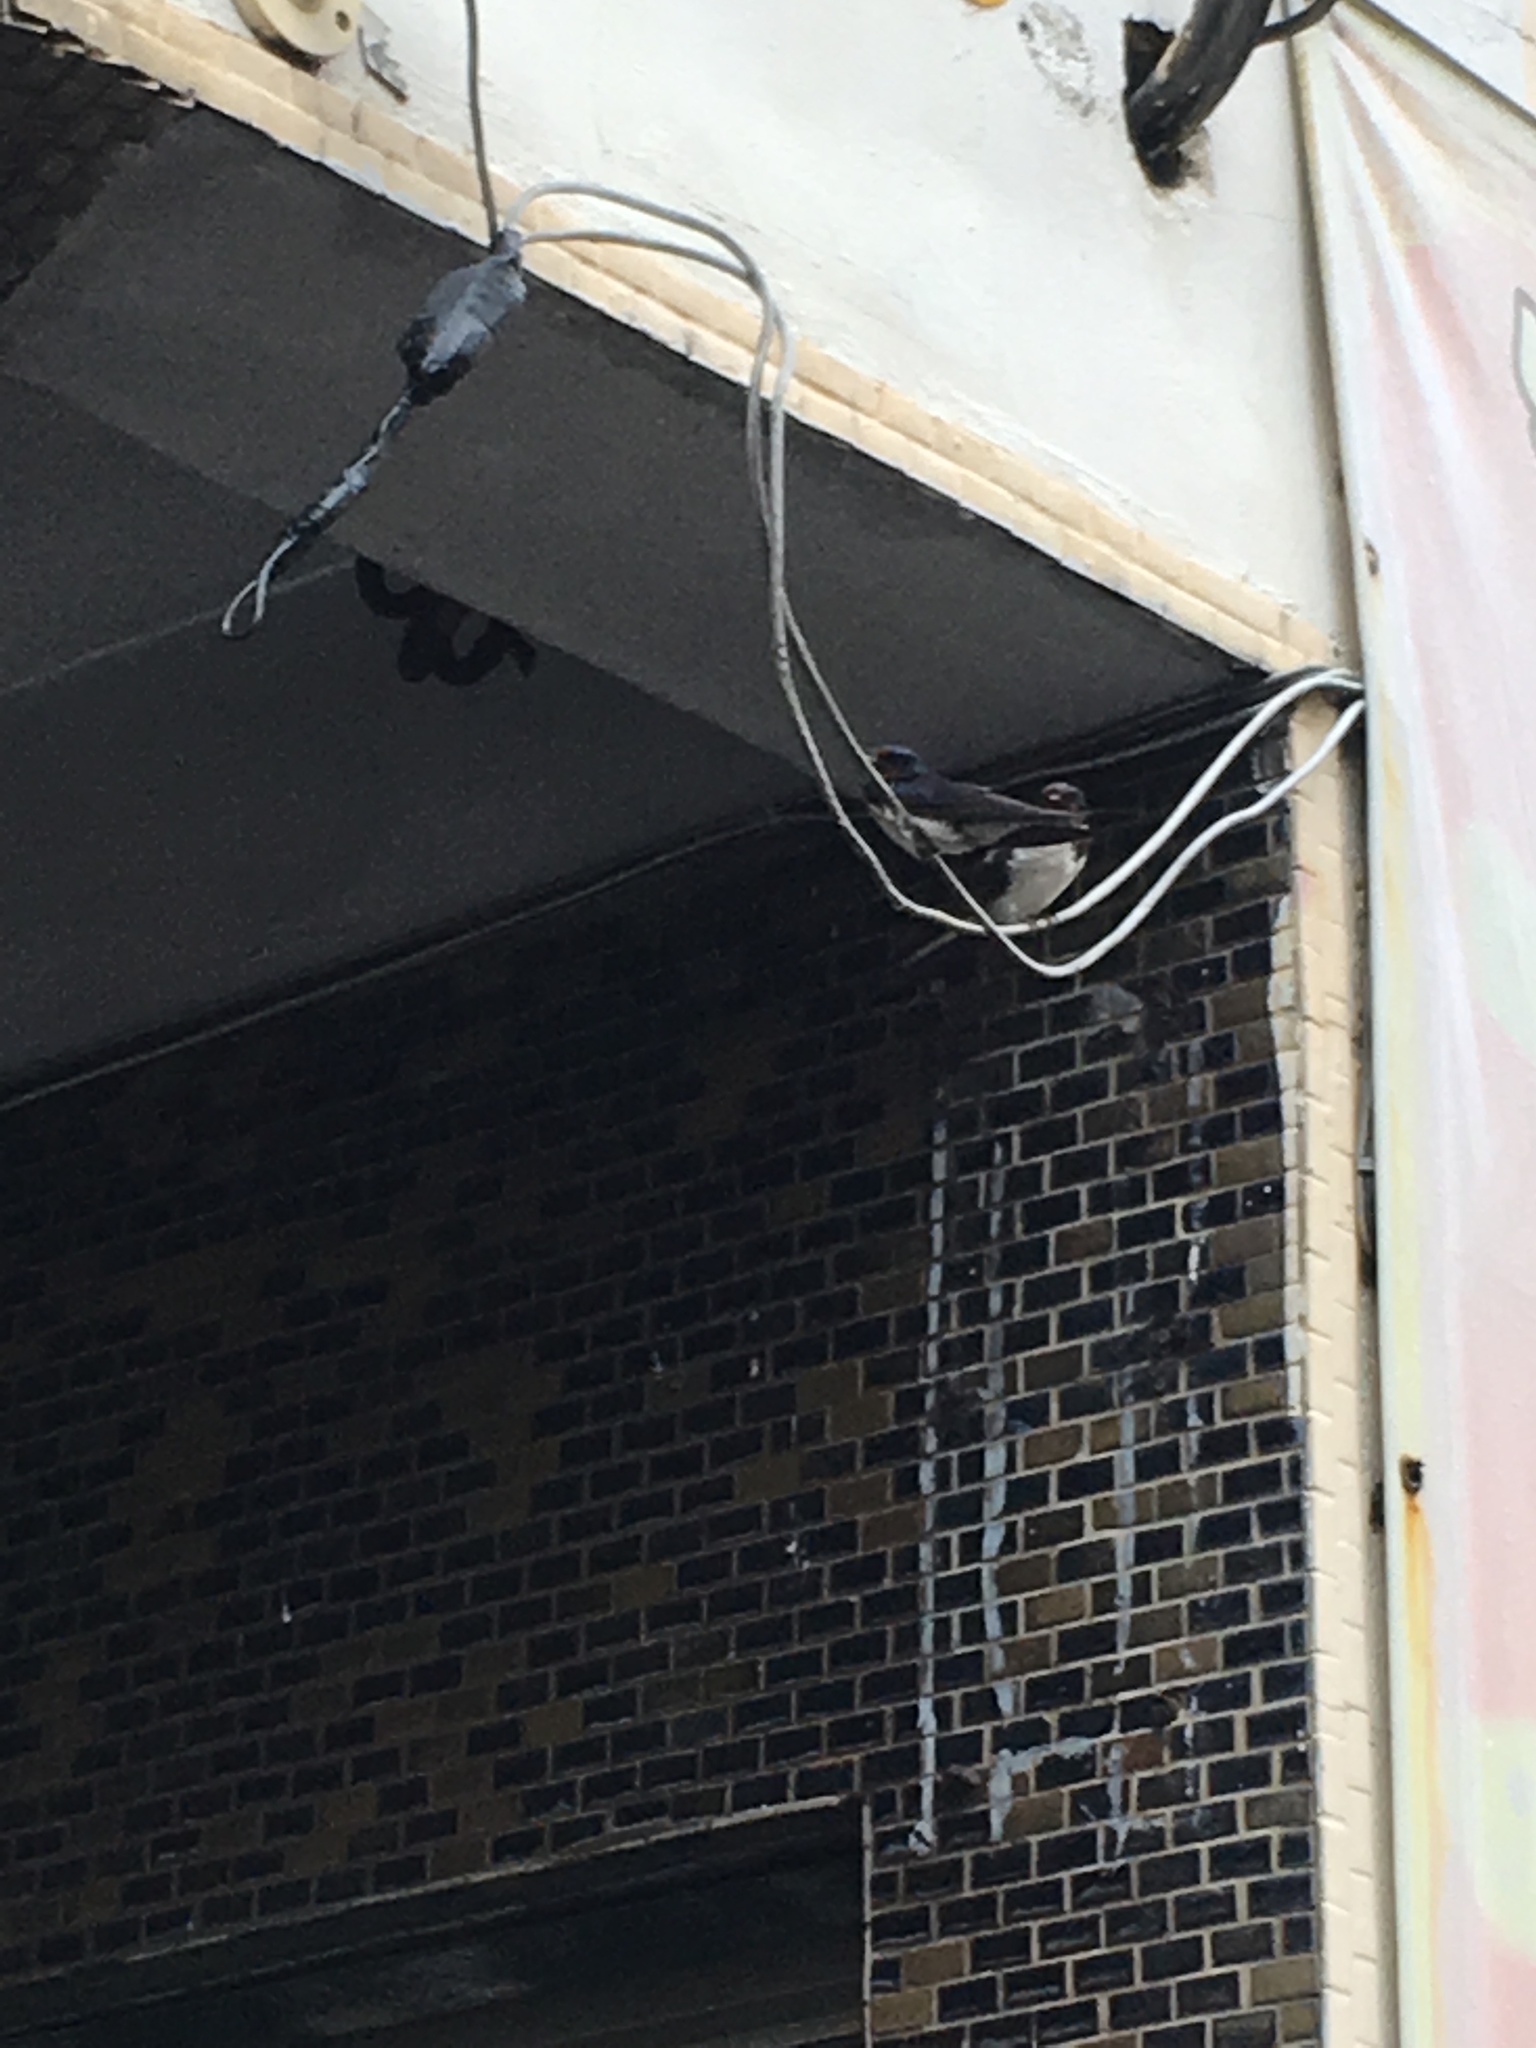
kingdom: Animalia
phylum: Chordata
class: Aves
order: Passeriformes
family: Hirundinidae
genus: Hirundo
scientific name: Hirundo rustica
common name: Barn swallow
